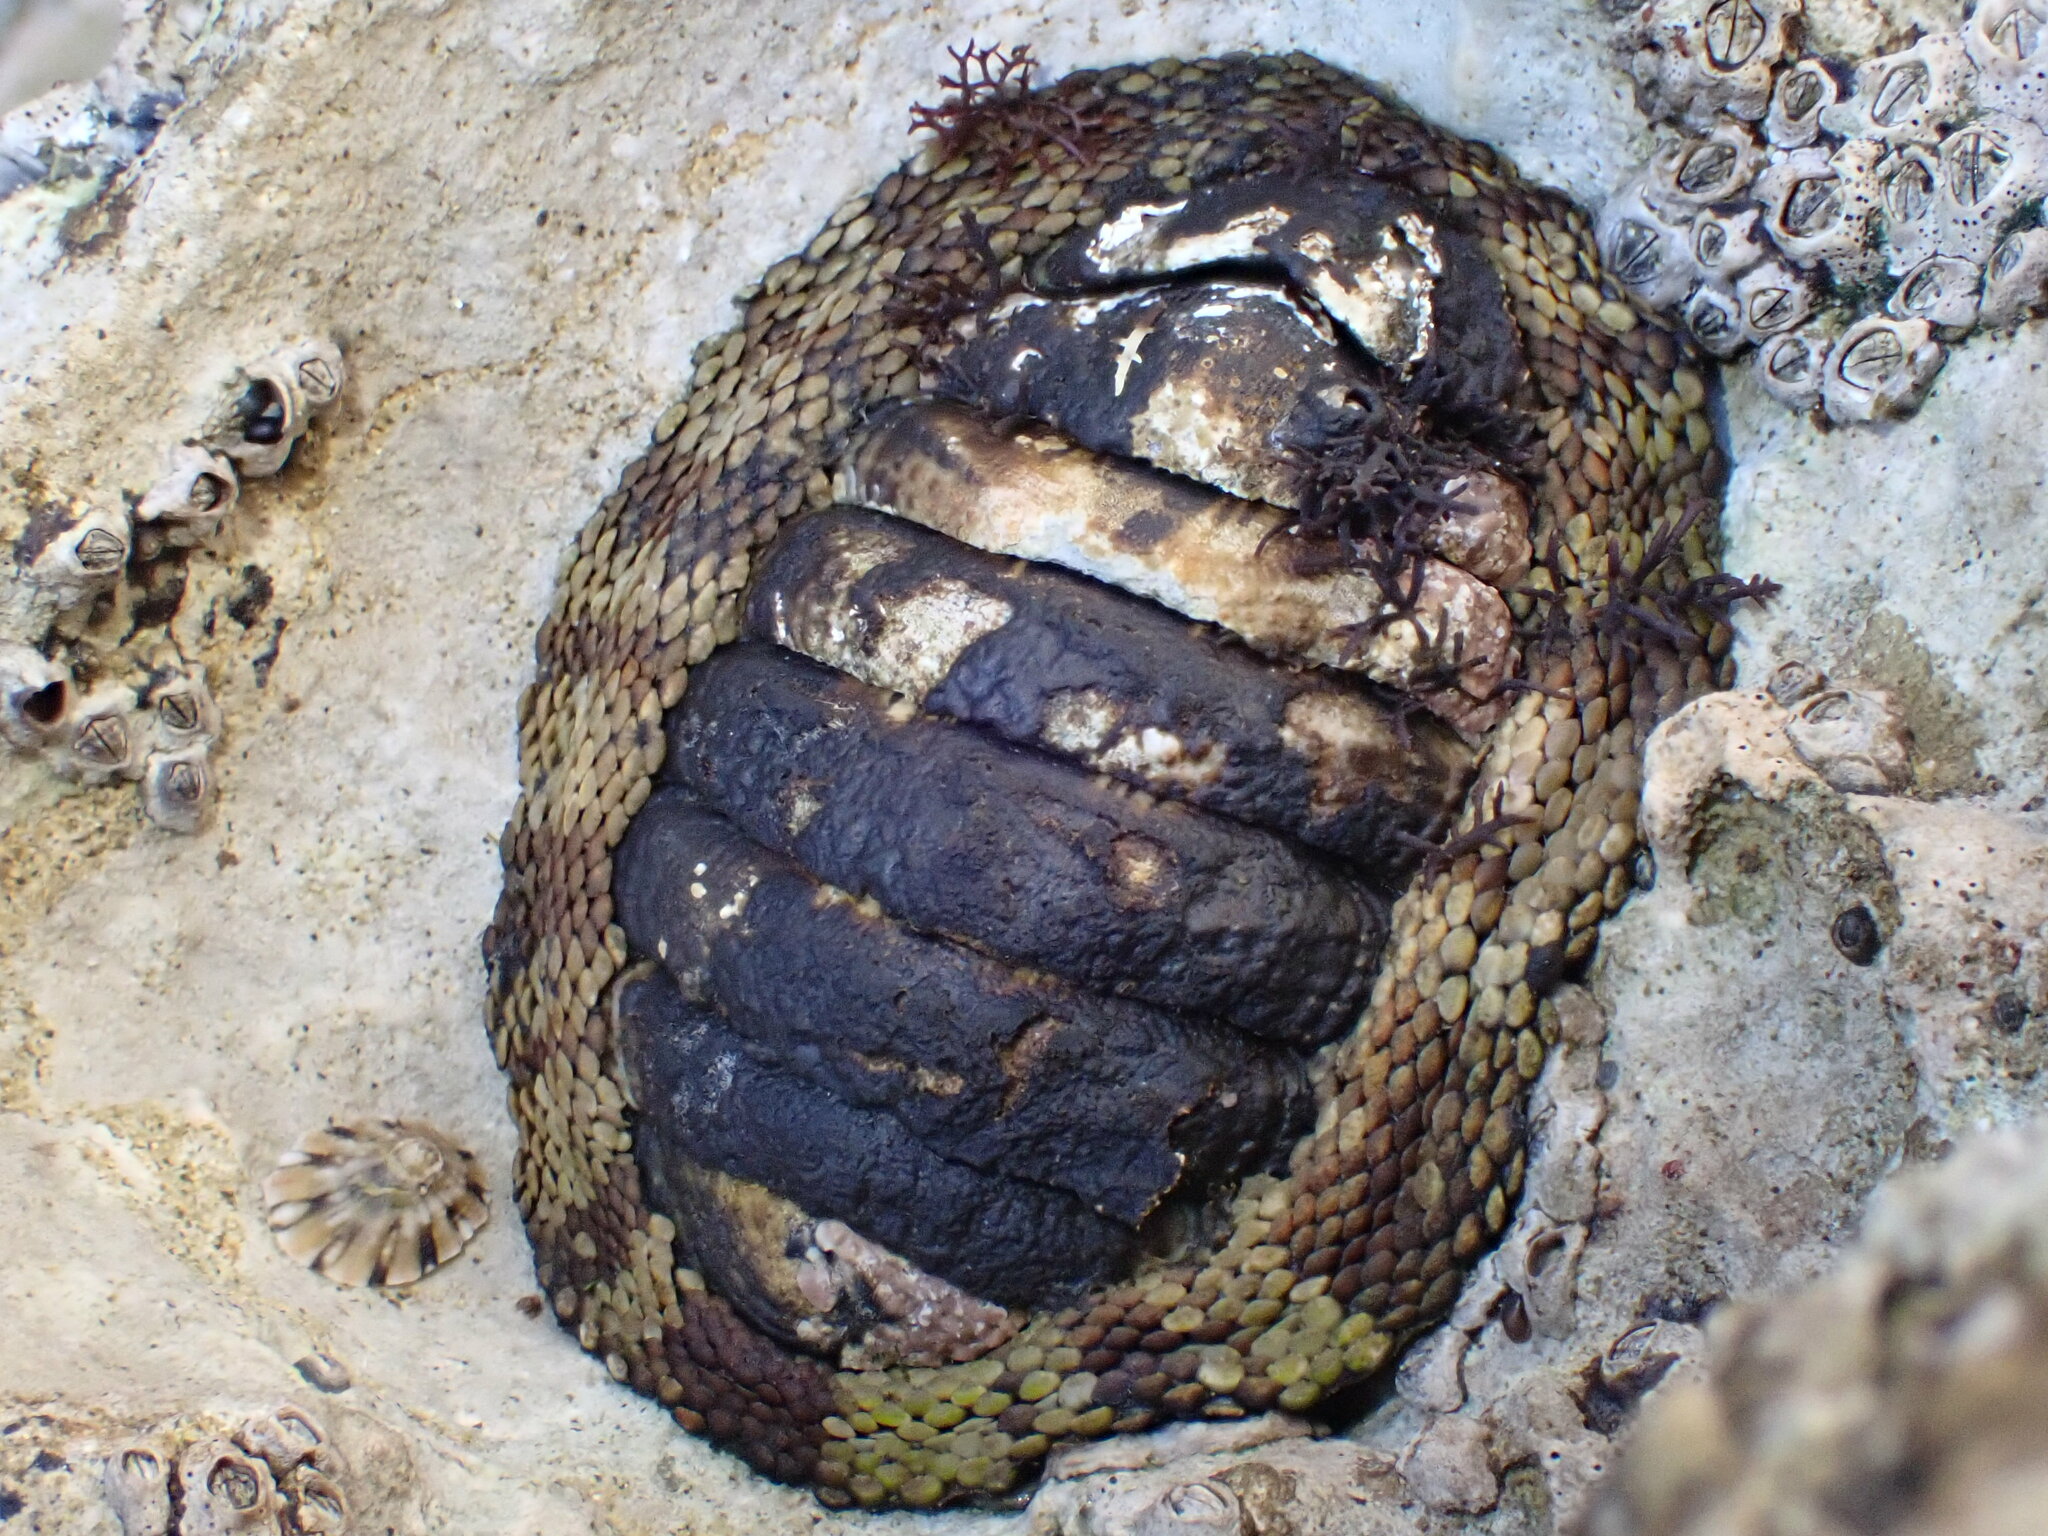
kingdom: Animalia
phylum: Mollusca
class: Polyplacophora
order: Chitonida
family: Chitonidae
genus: Sypharochiton
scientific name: Sypharochiton pelliserpentis
